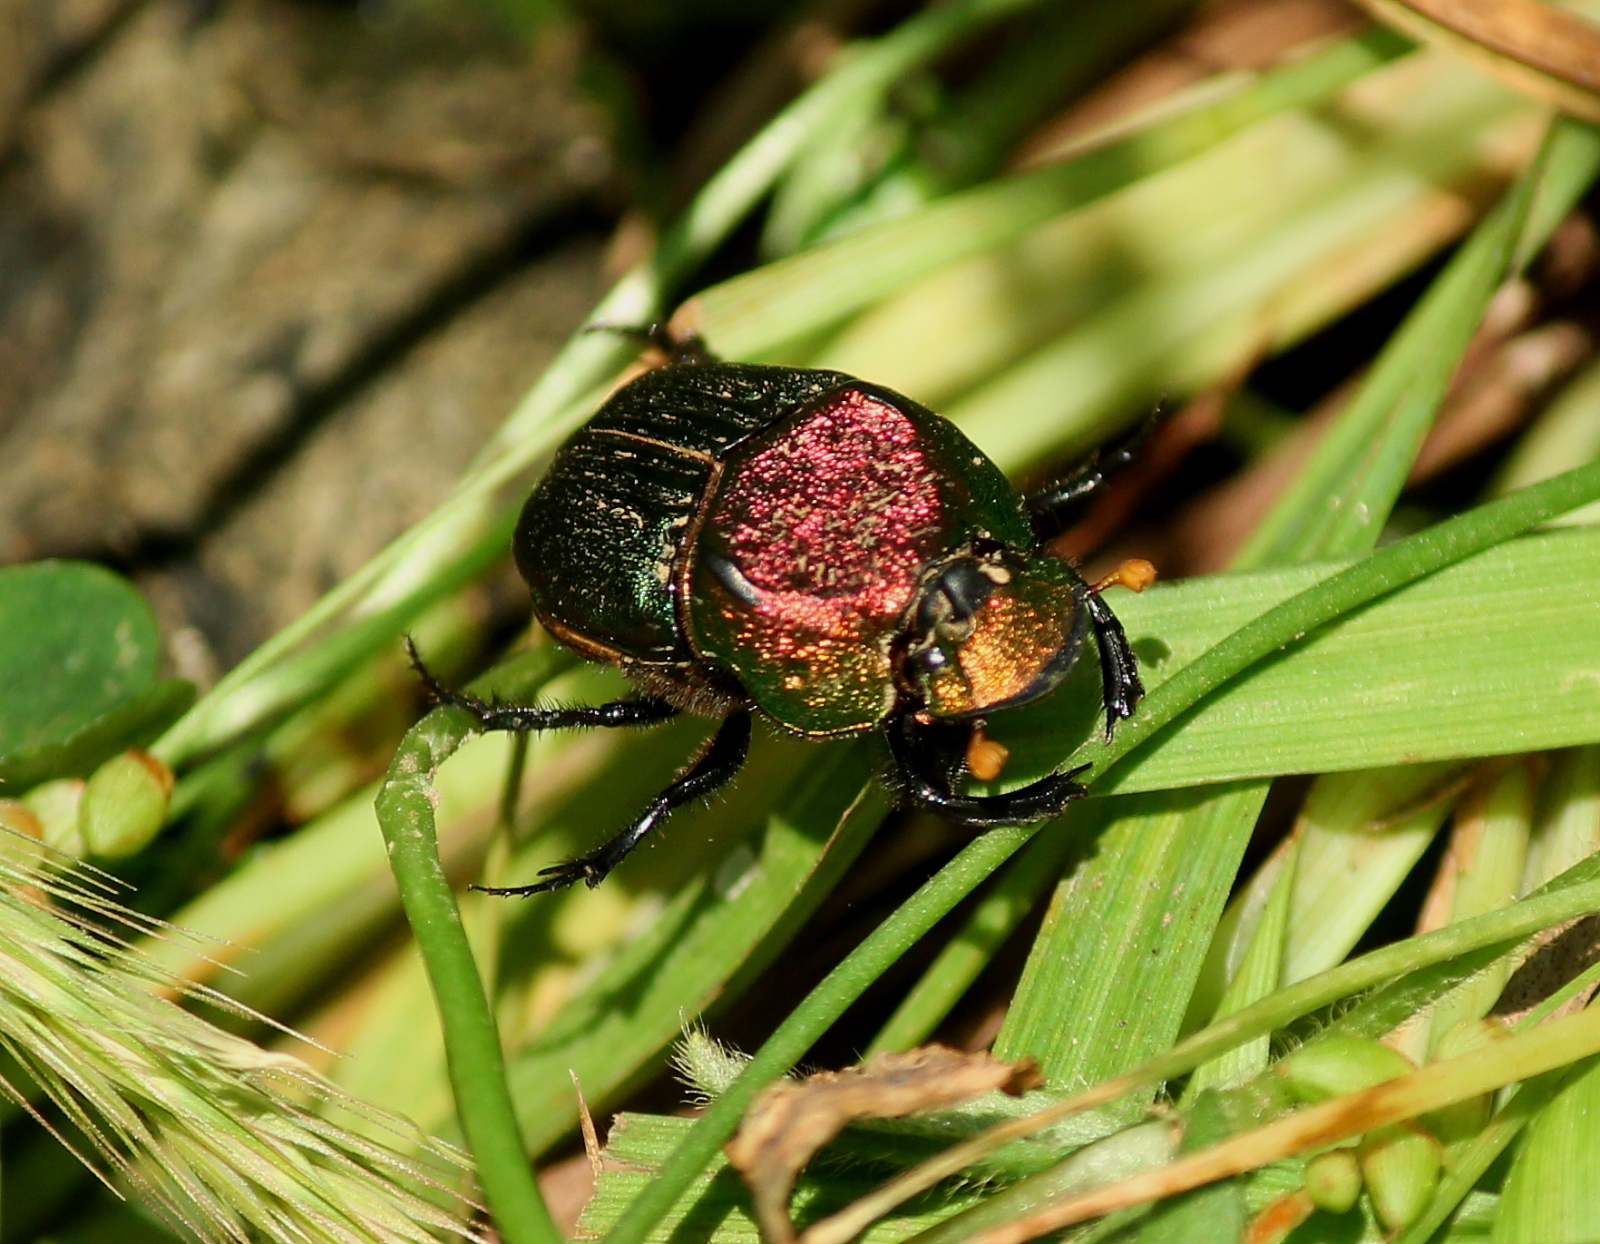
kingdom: Animalia
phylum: Arthropoda
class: Insecta
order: Coleoptera
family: Scarabaeidae
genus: Phanaeus
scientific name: Phanaeus vindex
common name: Rainbow scarab
